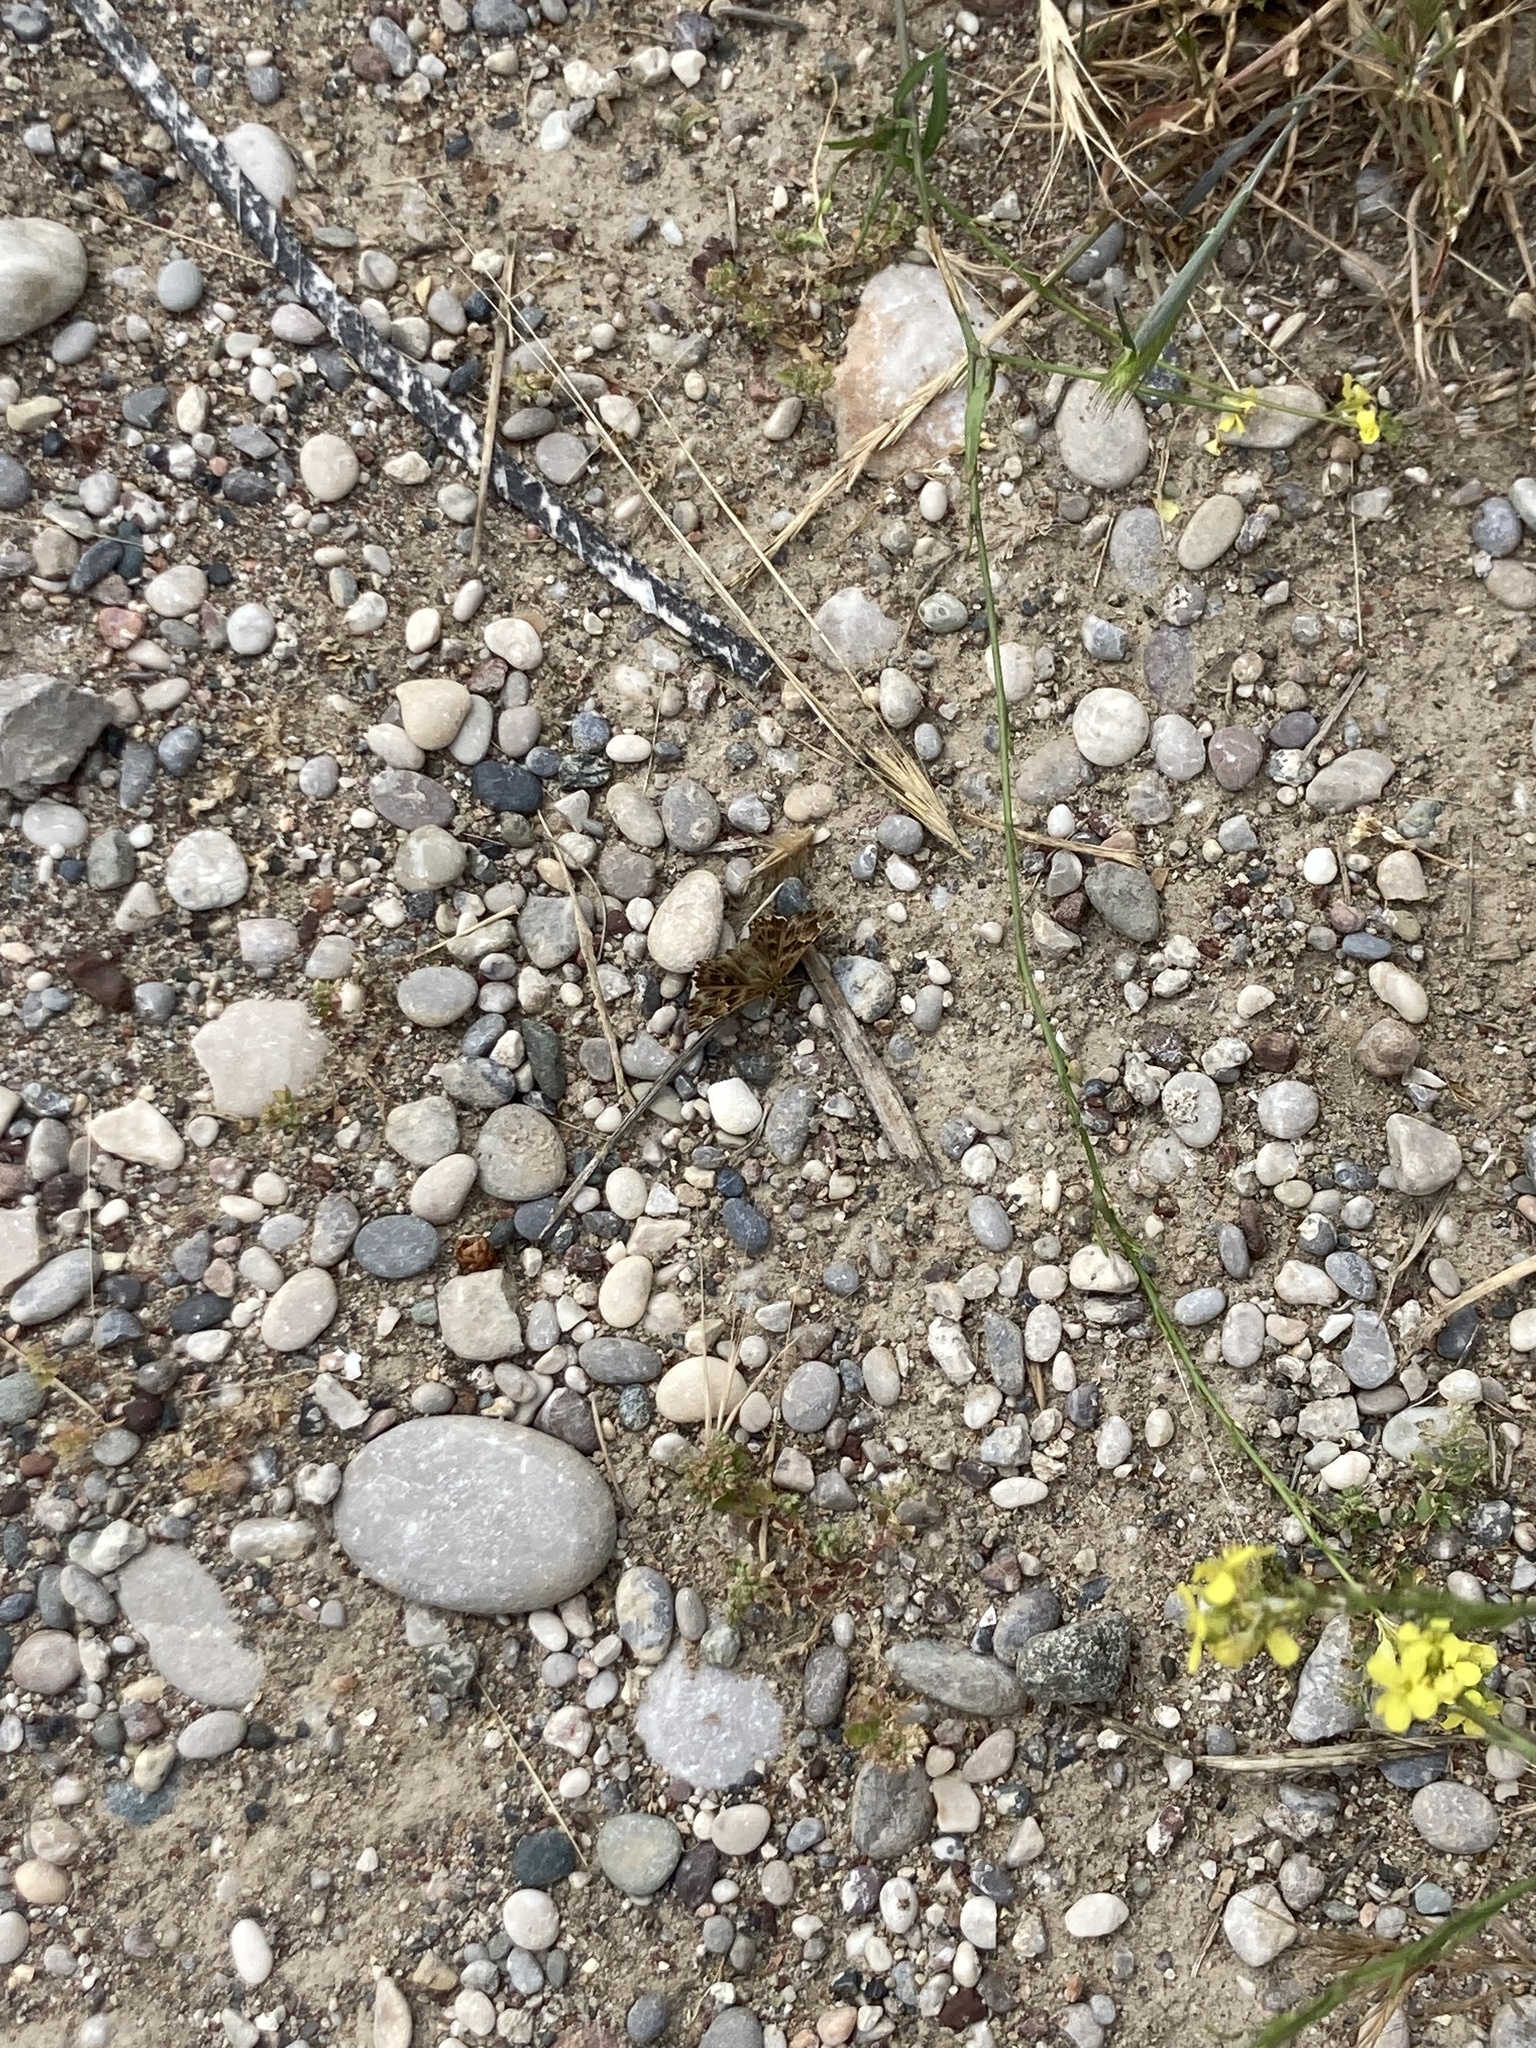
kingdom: Animalia
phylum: Arthropoda
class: Insecta
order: Lepidoptera
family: Hesperiidae
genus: Carcharodus
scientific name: Carcharodus alceae
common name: Mallow skipper
